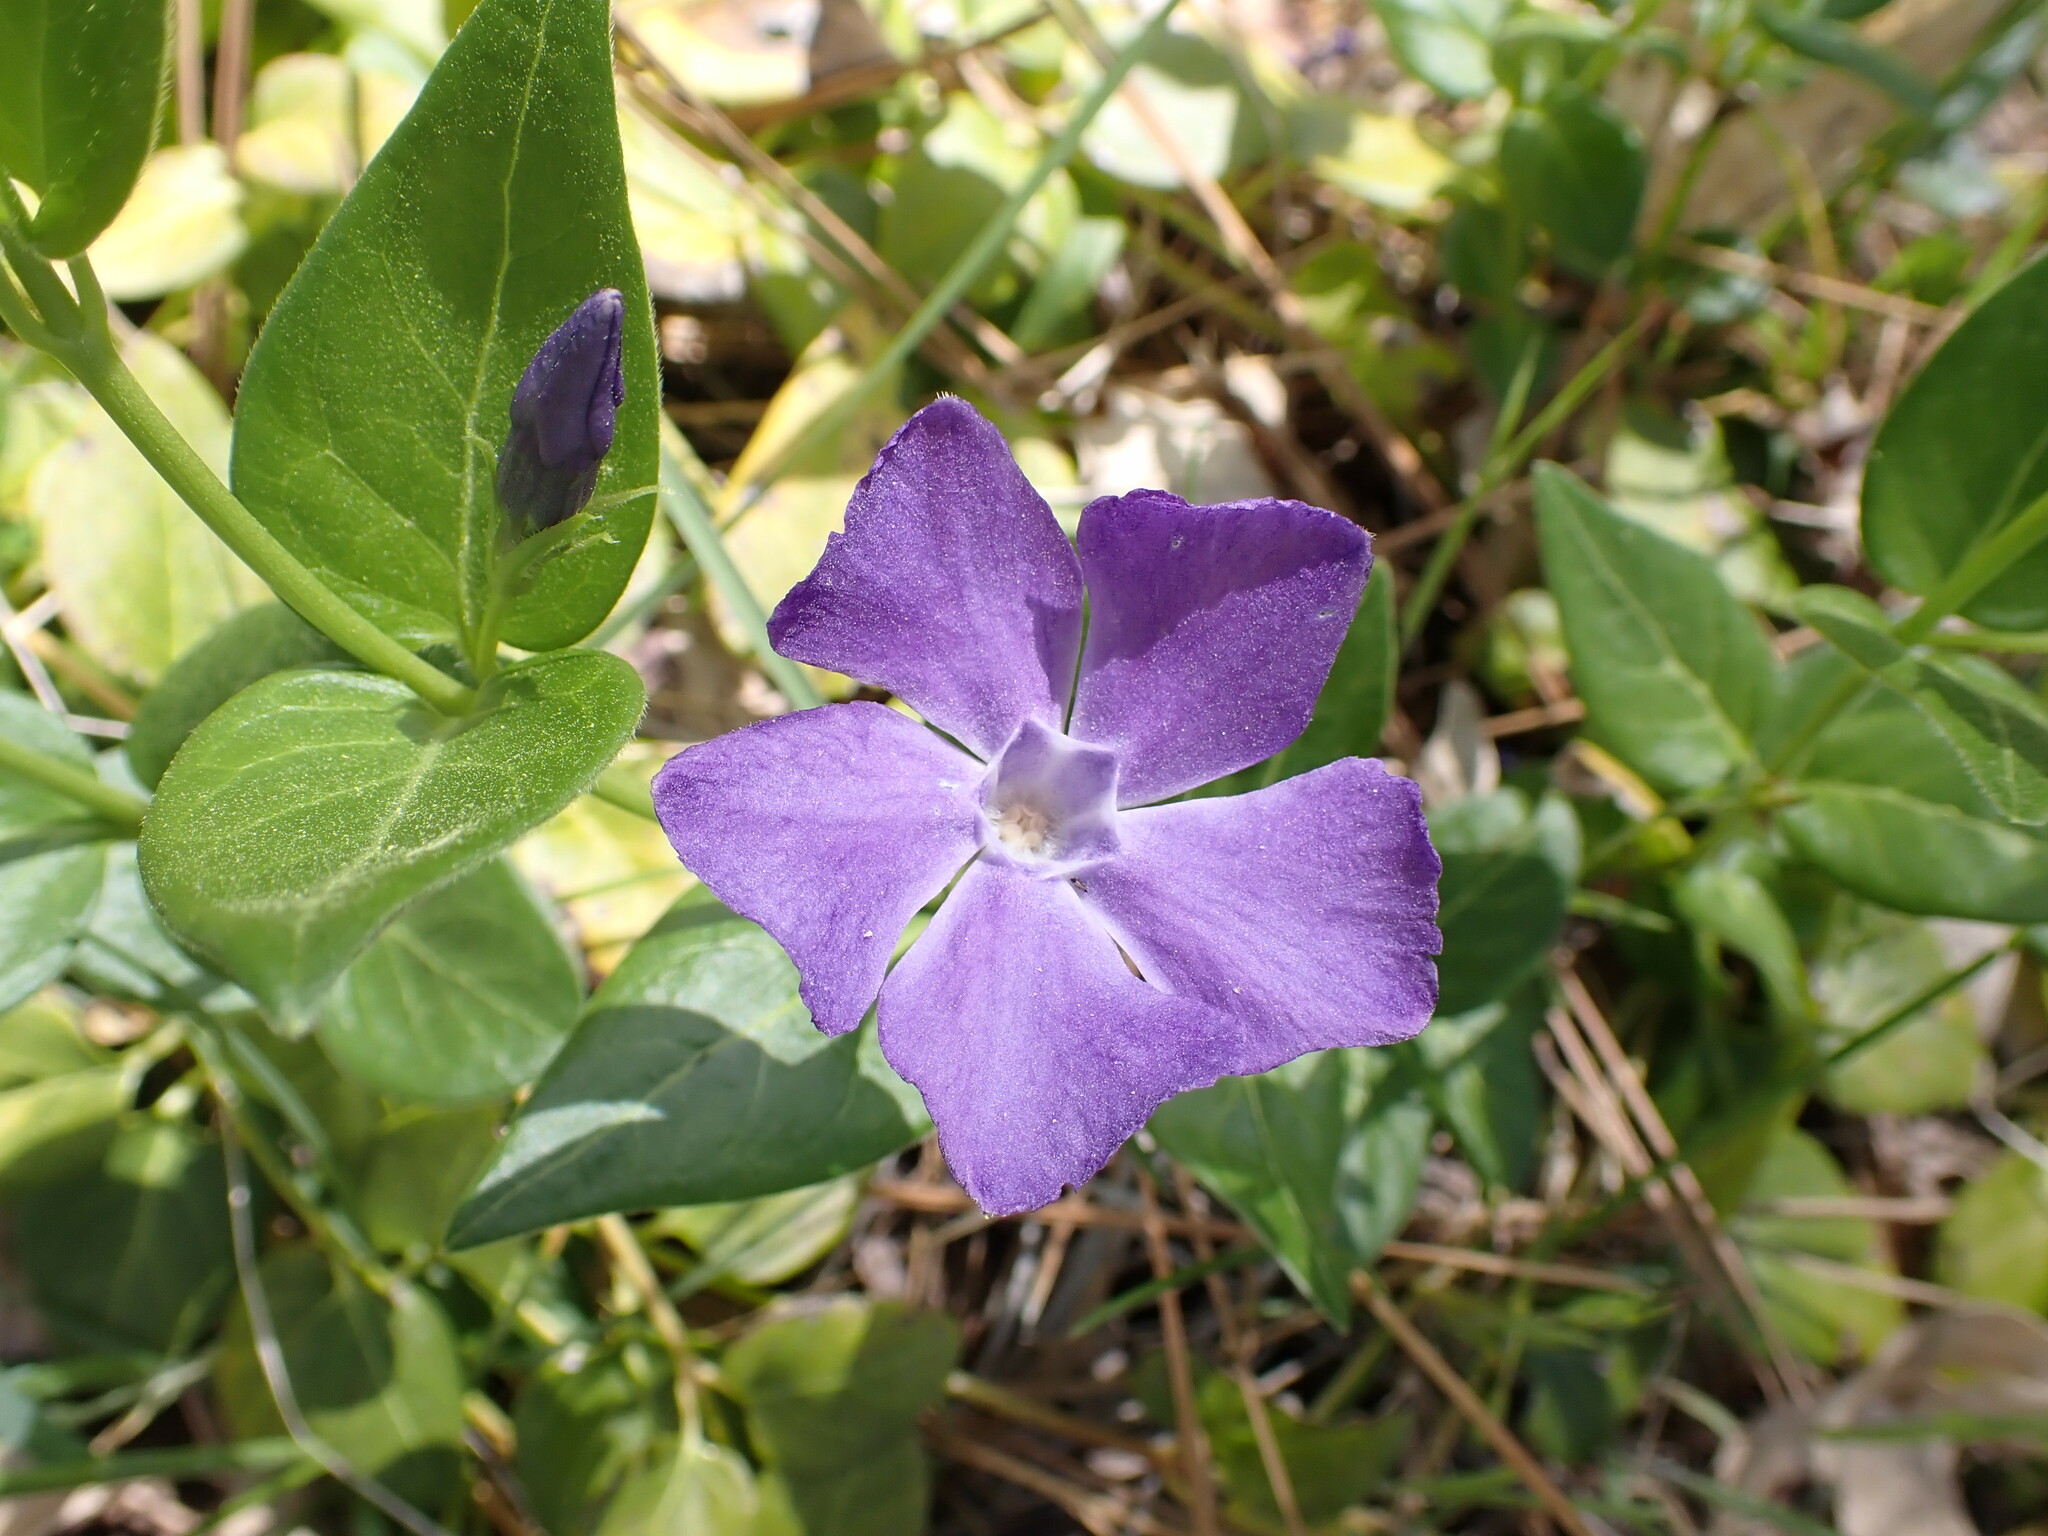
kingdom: Plantae
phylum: Tracheophyta
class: Magnoliopsida
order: Gentianales
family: Apocynaceae
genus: Vinca
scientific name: Vinca major
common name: Greater periwinkle
